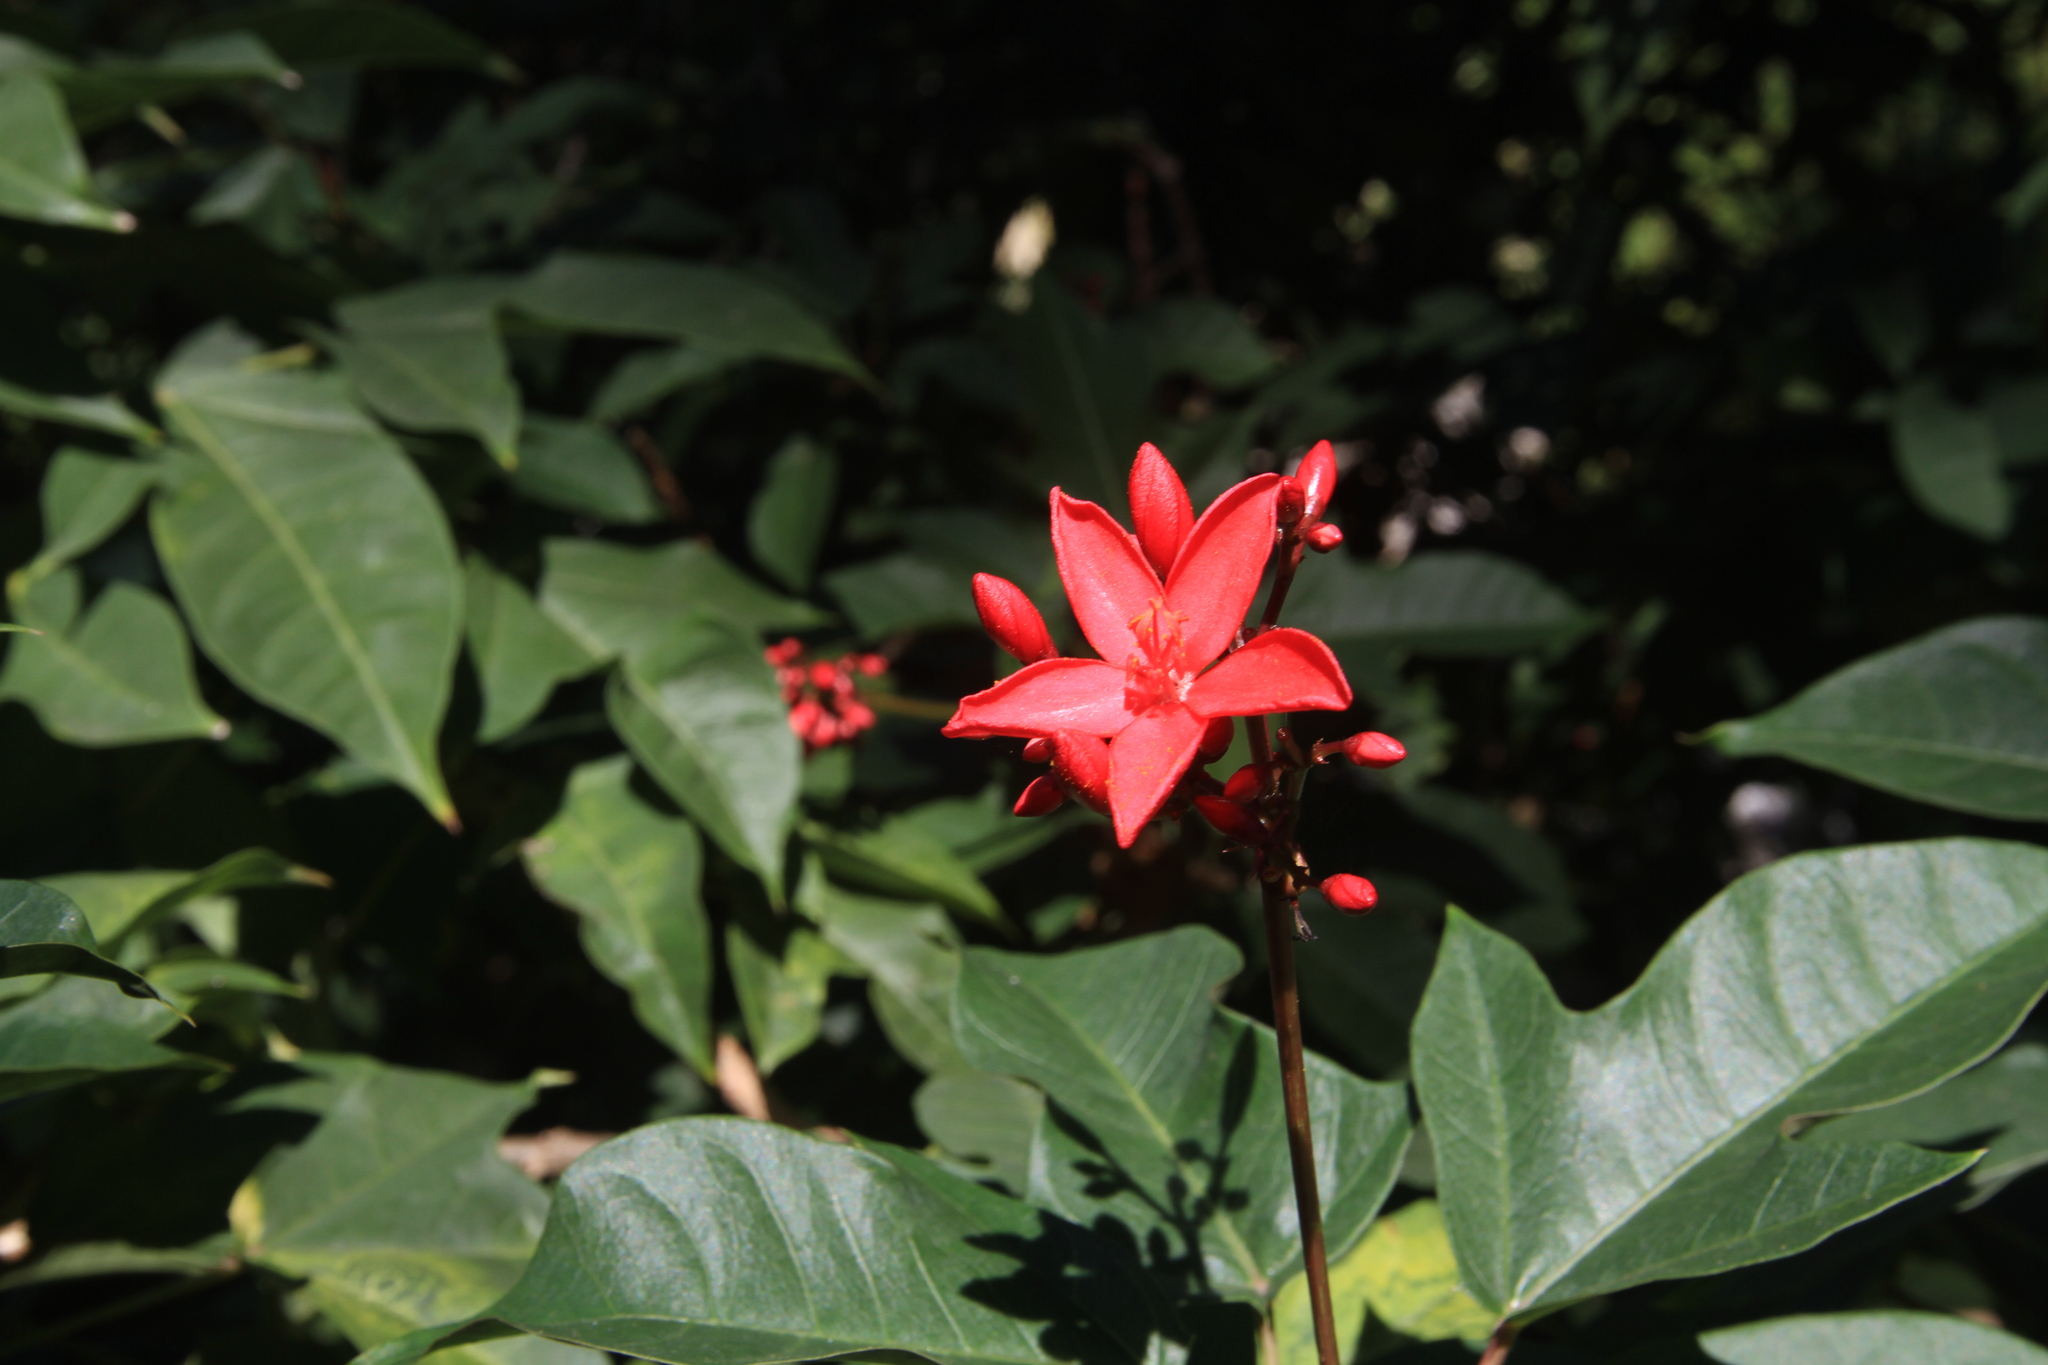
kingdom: Plantae
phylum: Tracheophyta
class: Magnoliopsida
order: Malpighiales
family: Euphorbiaceae
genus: Jatropha
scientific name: Jatropha integerrima
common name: Peregrina
